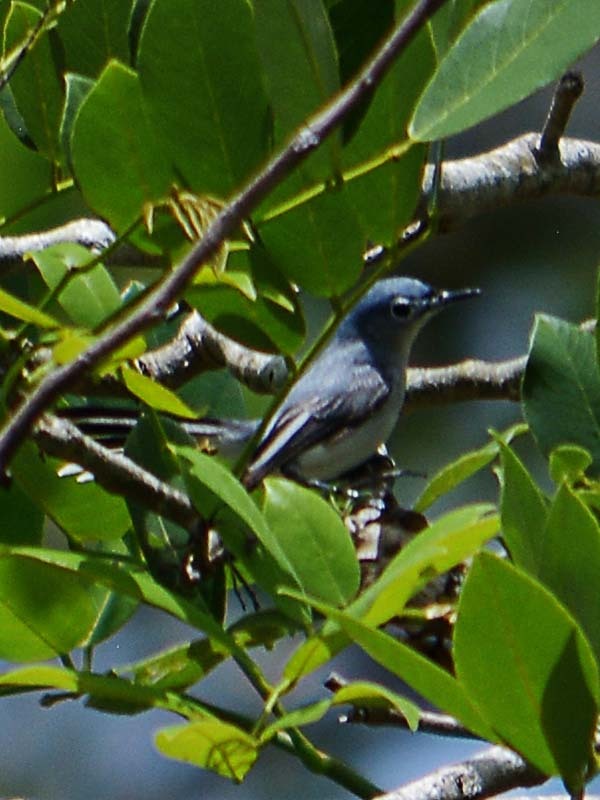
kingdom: Animalia
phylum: Chordata
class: Aves
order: Passeriformes
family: Polioptilidae
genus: Polioptila
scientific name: Polioptila caerulea
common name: Blue-gray gnatcatcher
